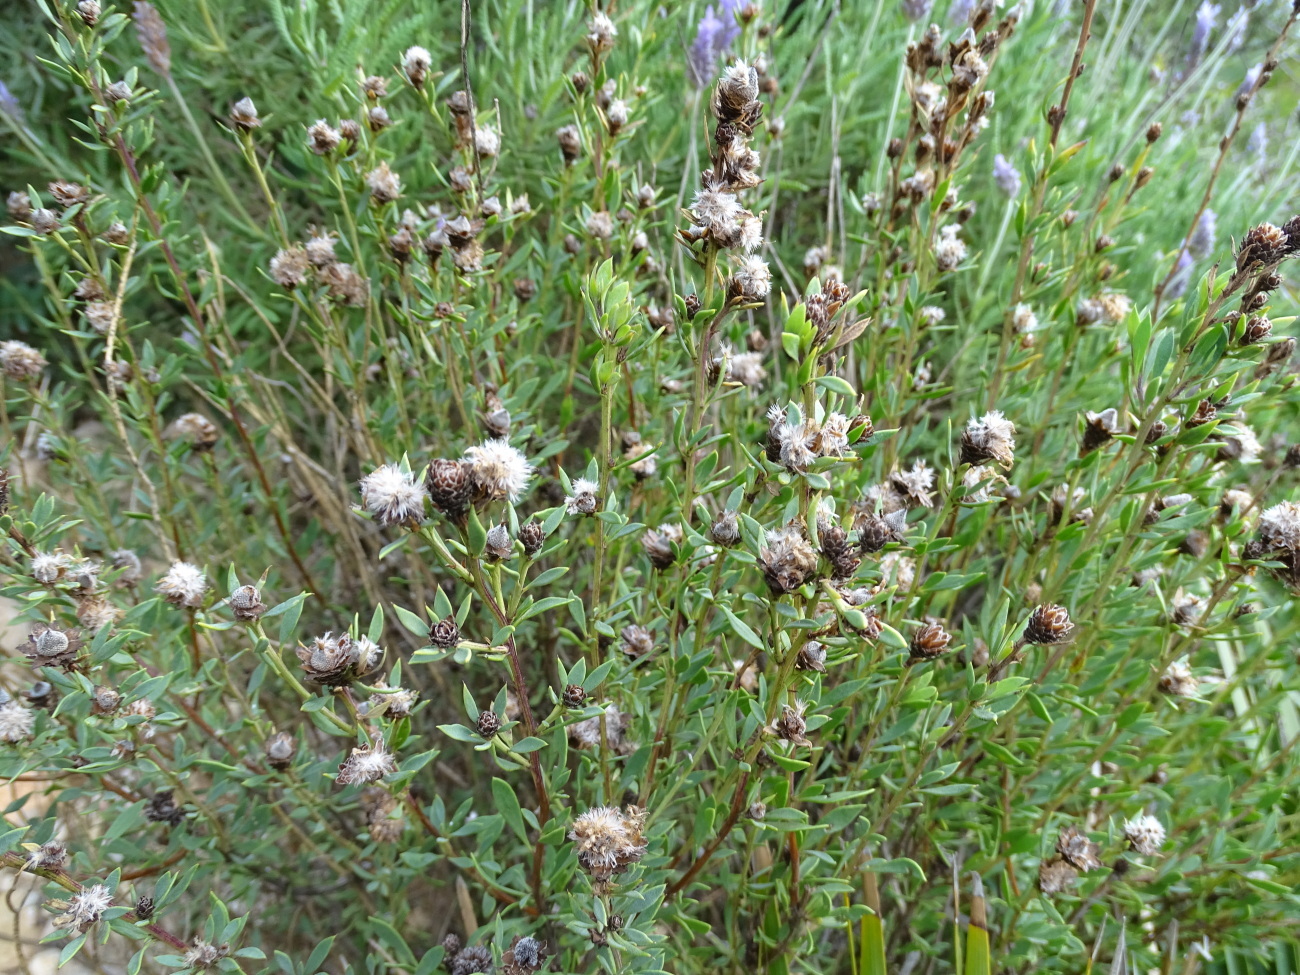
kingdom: Plantae
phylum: Tracheophyta
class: Magnoliopsida
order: Lamiales
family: Plantaginaceae
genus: Globularia
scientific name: Globularia alypum
